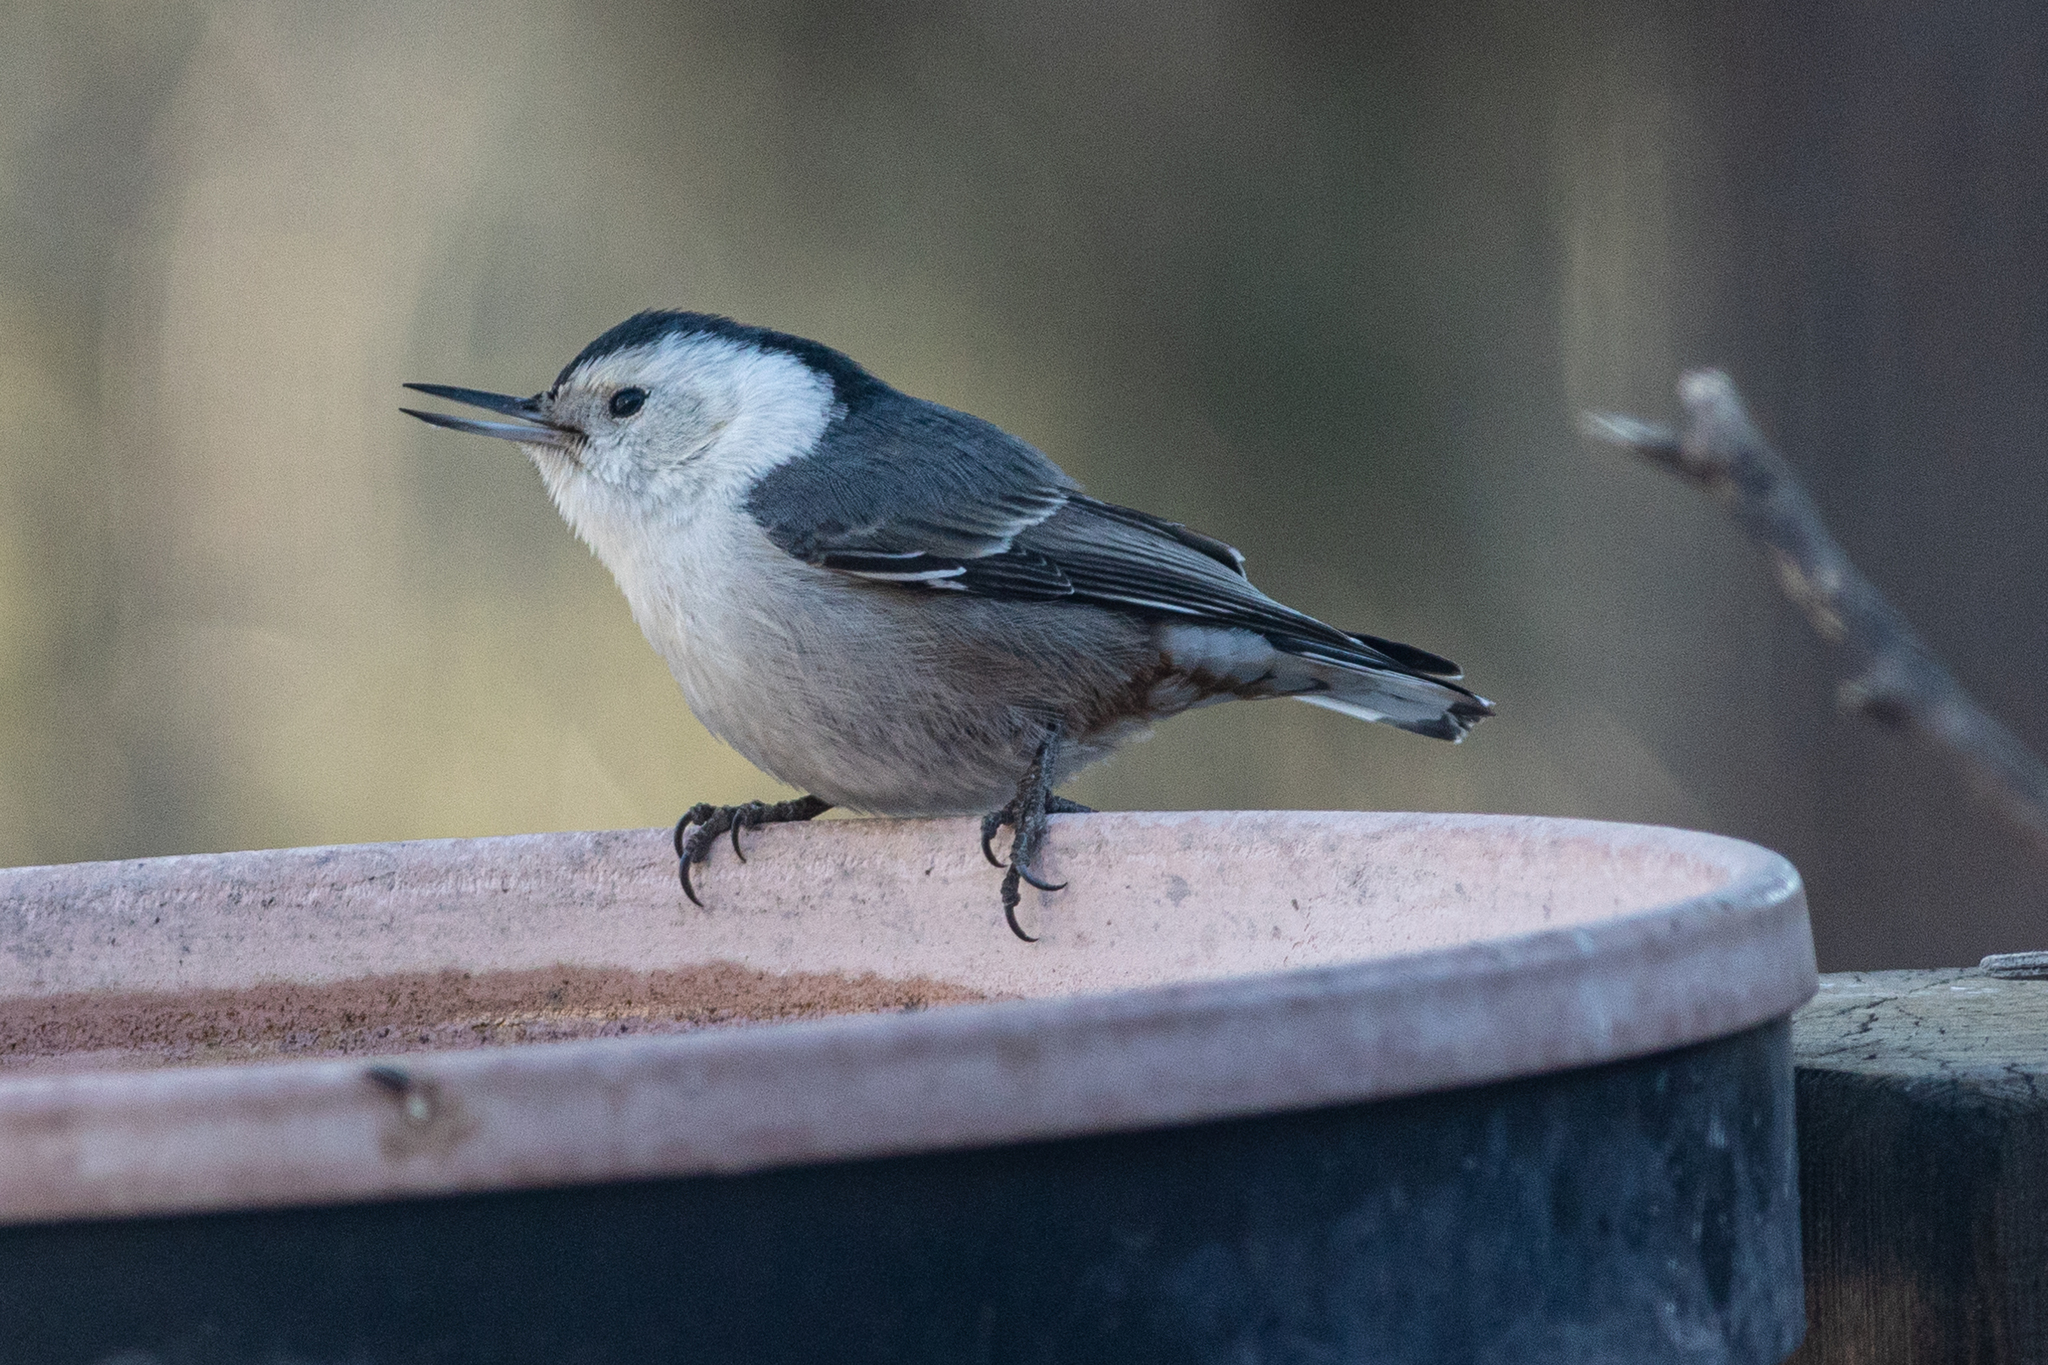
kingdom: Animalia
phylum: Chordata
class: Aves
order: Passeriformes
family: Sittidae
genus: Sitta
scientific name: Sitta carolinensis
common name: White-breasted nuthatch
